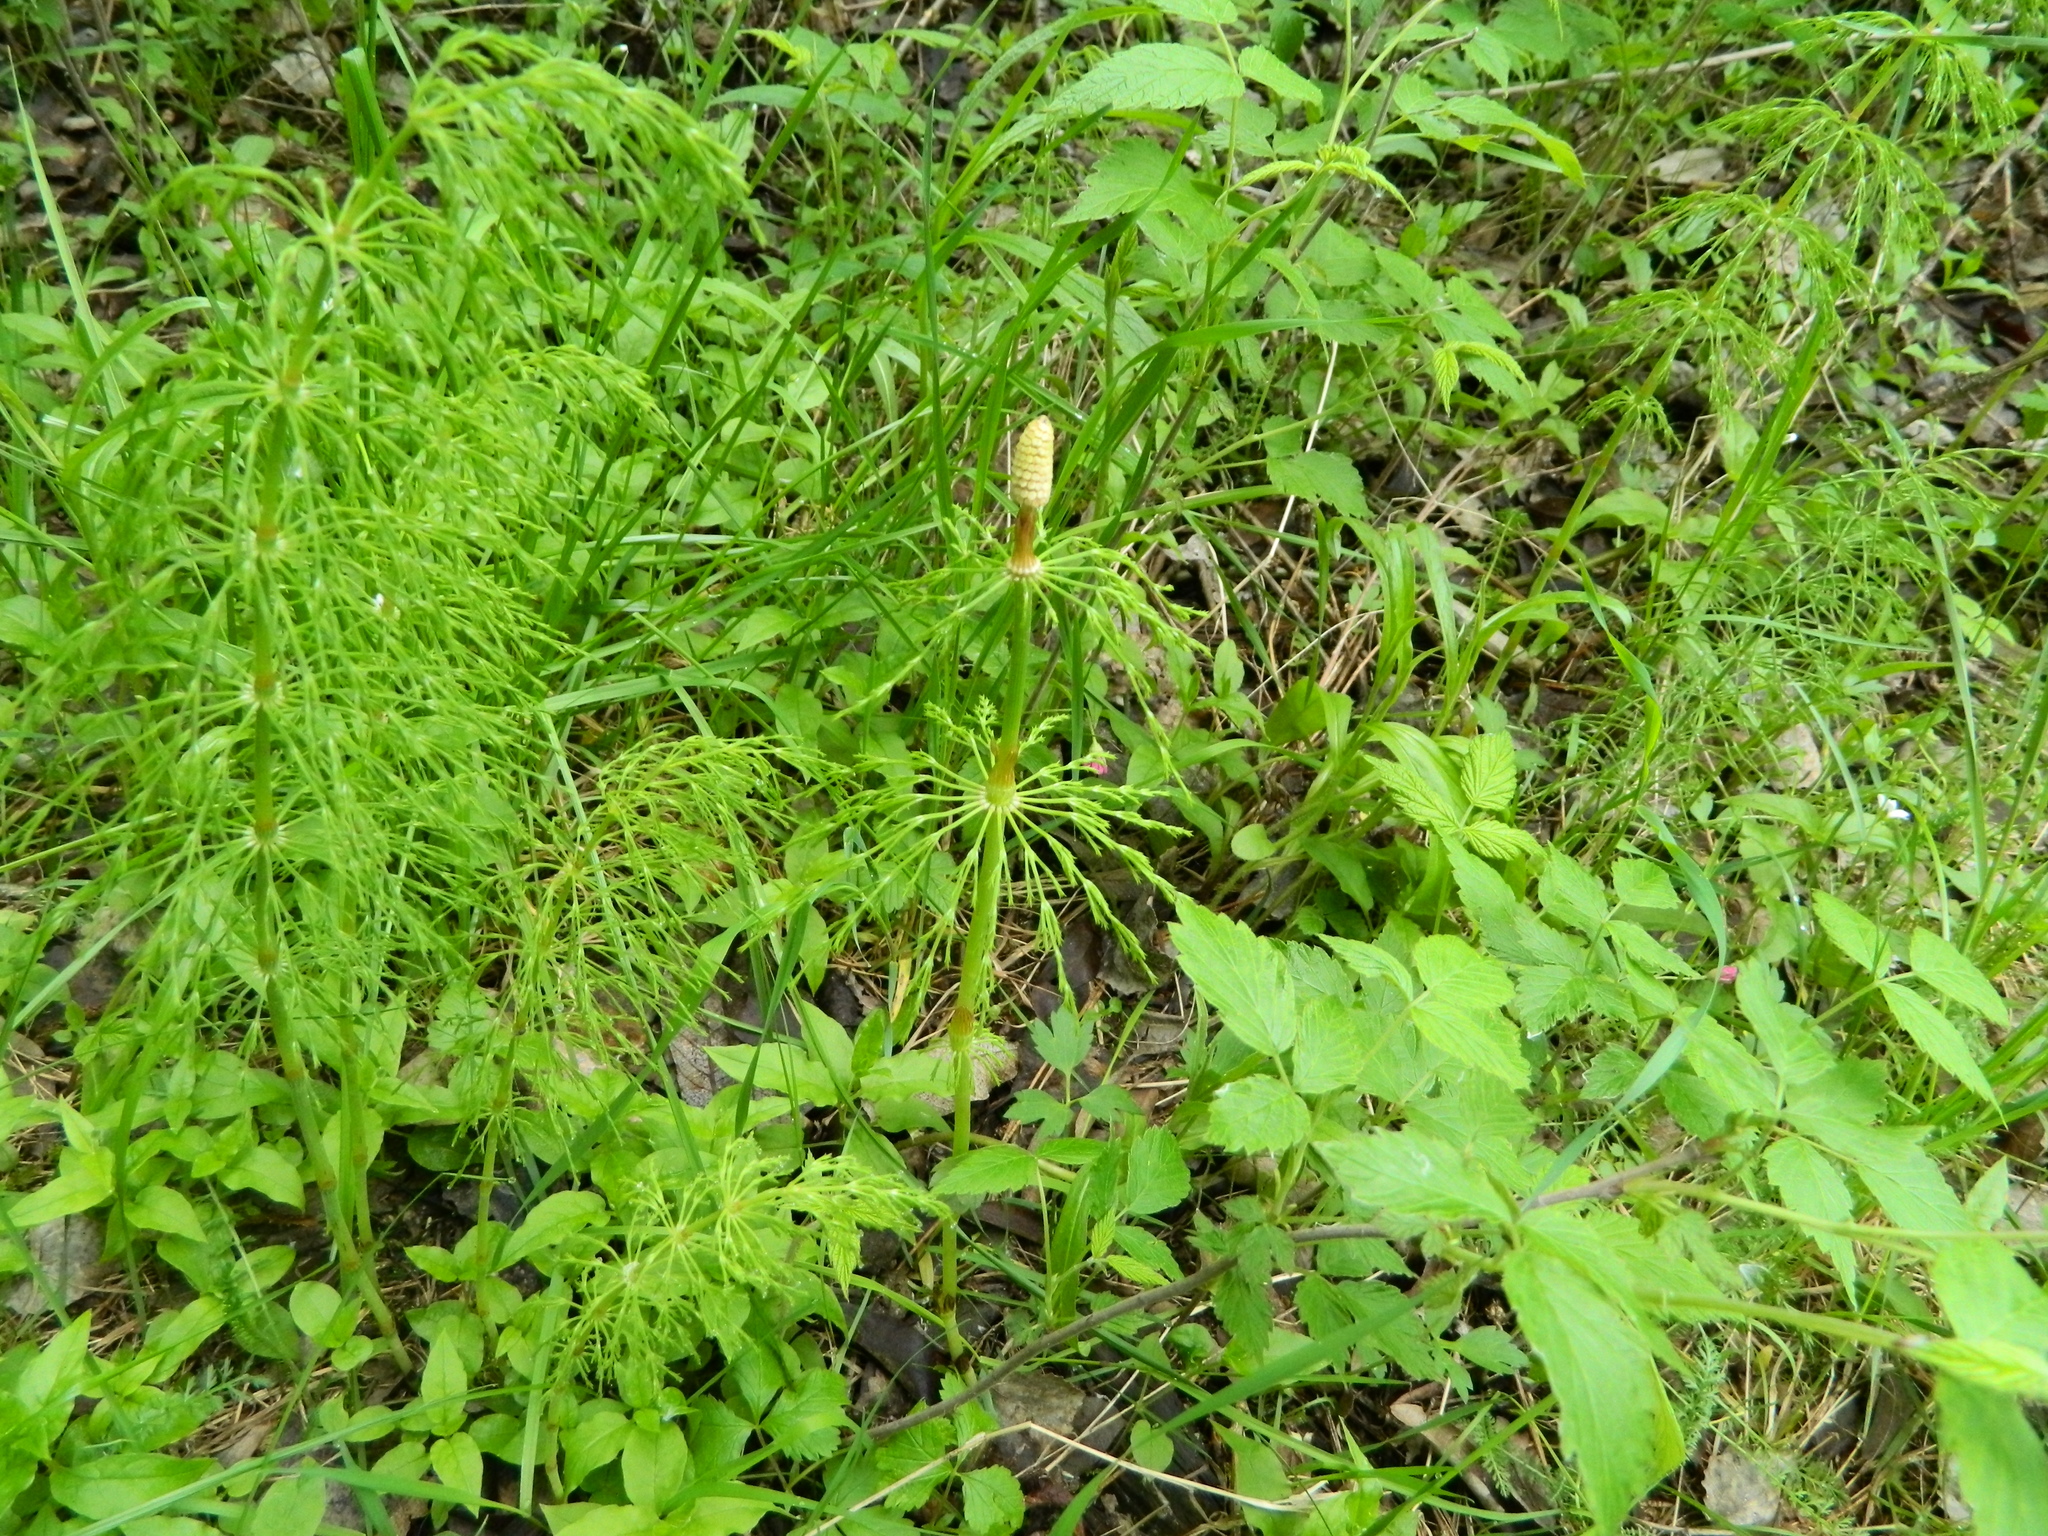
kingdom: Plantae
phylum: Tracheophyta
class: Polypodiopsida
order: Equisetales
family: Equisetaceae
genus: Equisetum
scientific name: Equisetum sylvaticum
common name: Wood horsetail
